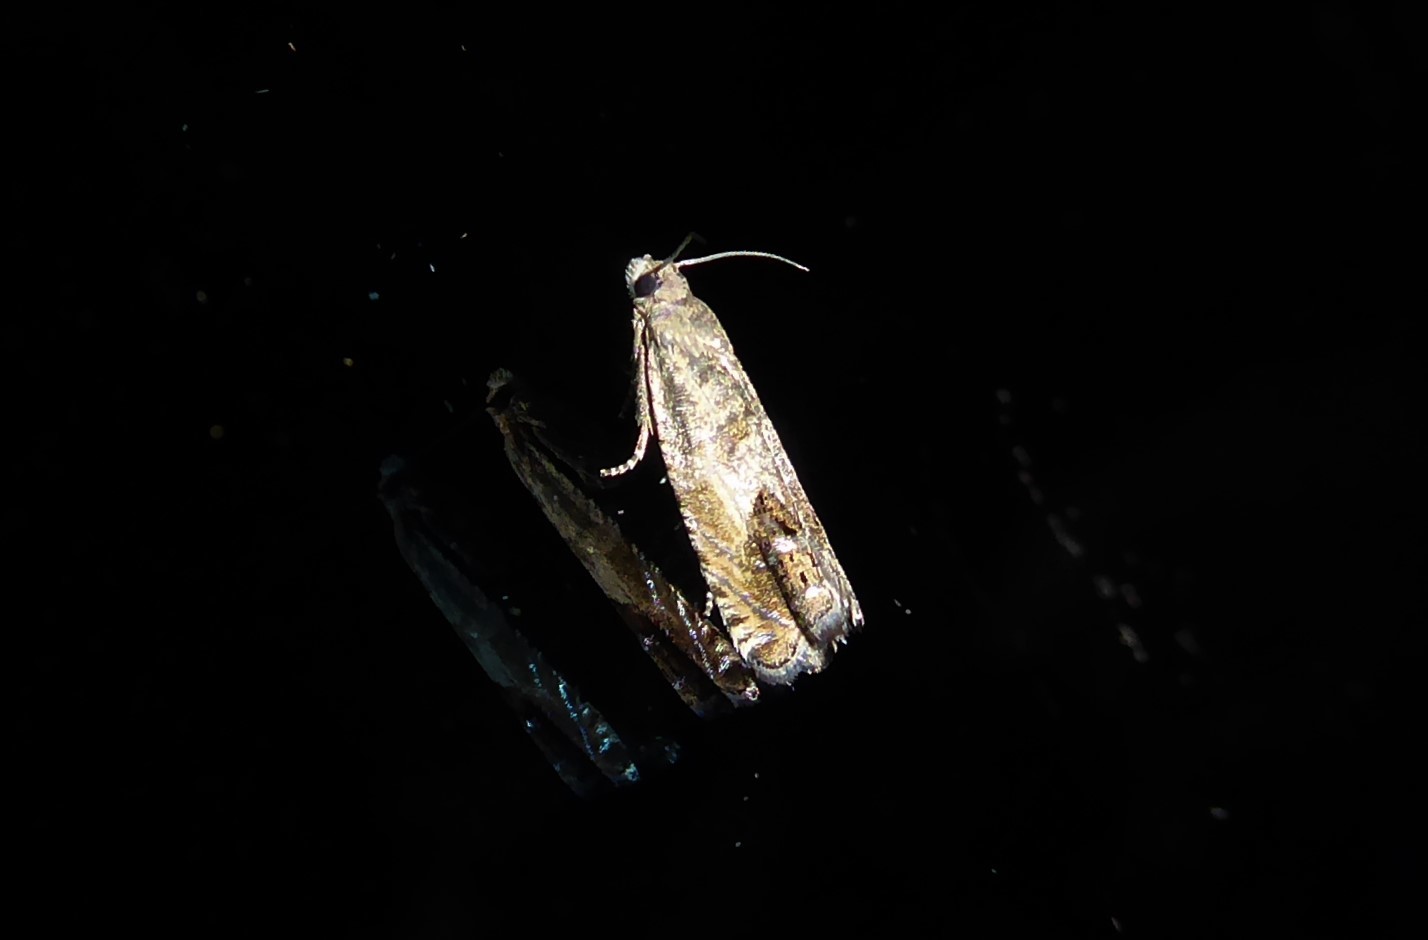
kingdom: Animalia
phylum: Arthropoda
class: Insecta
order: Lepidoptera
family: Tortricidae
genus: Cydia
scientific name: Cydia succedana
